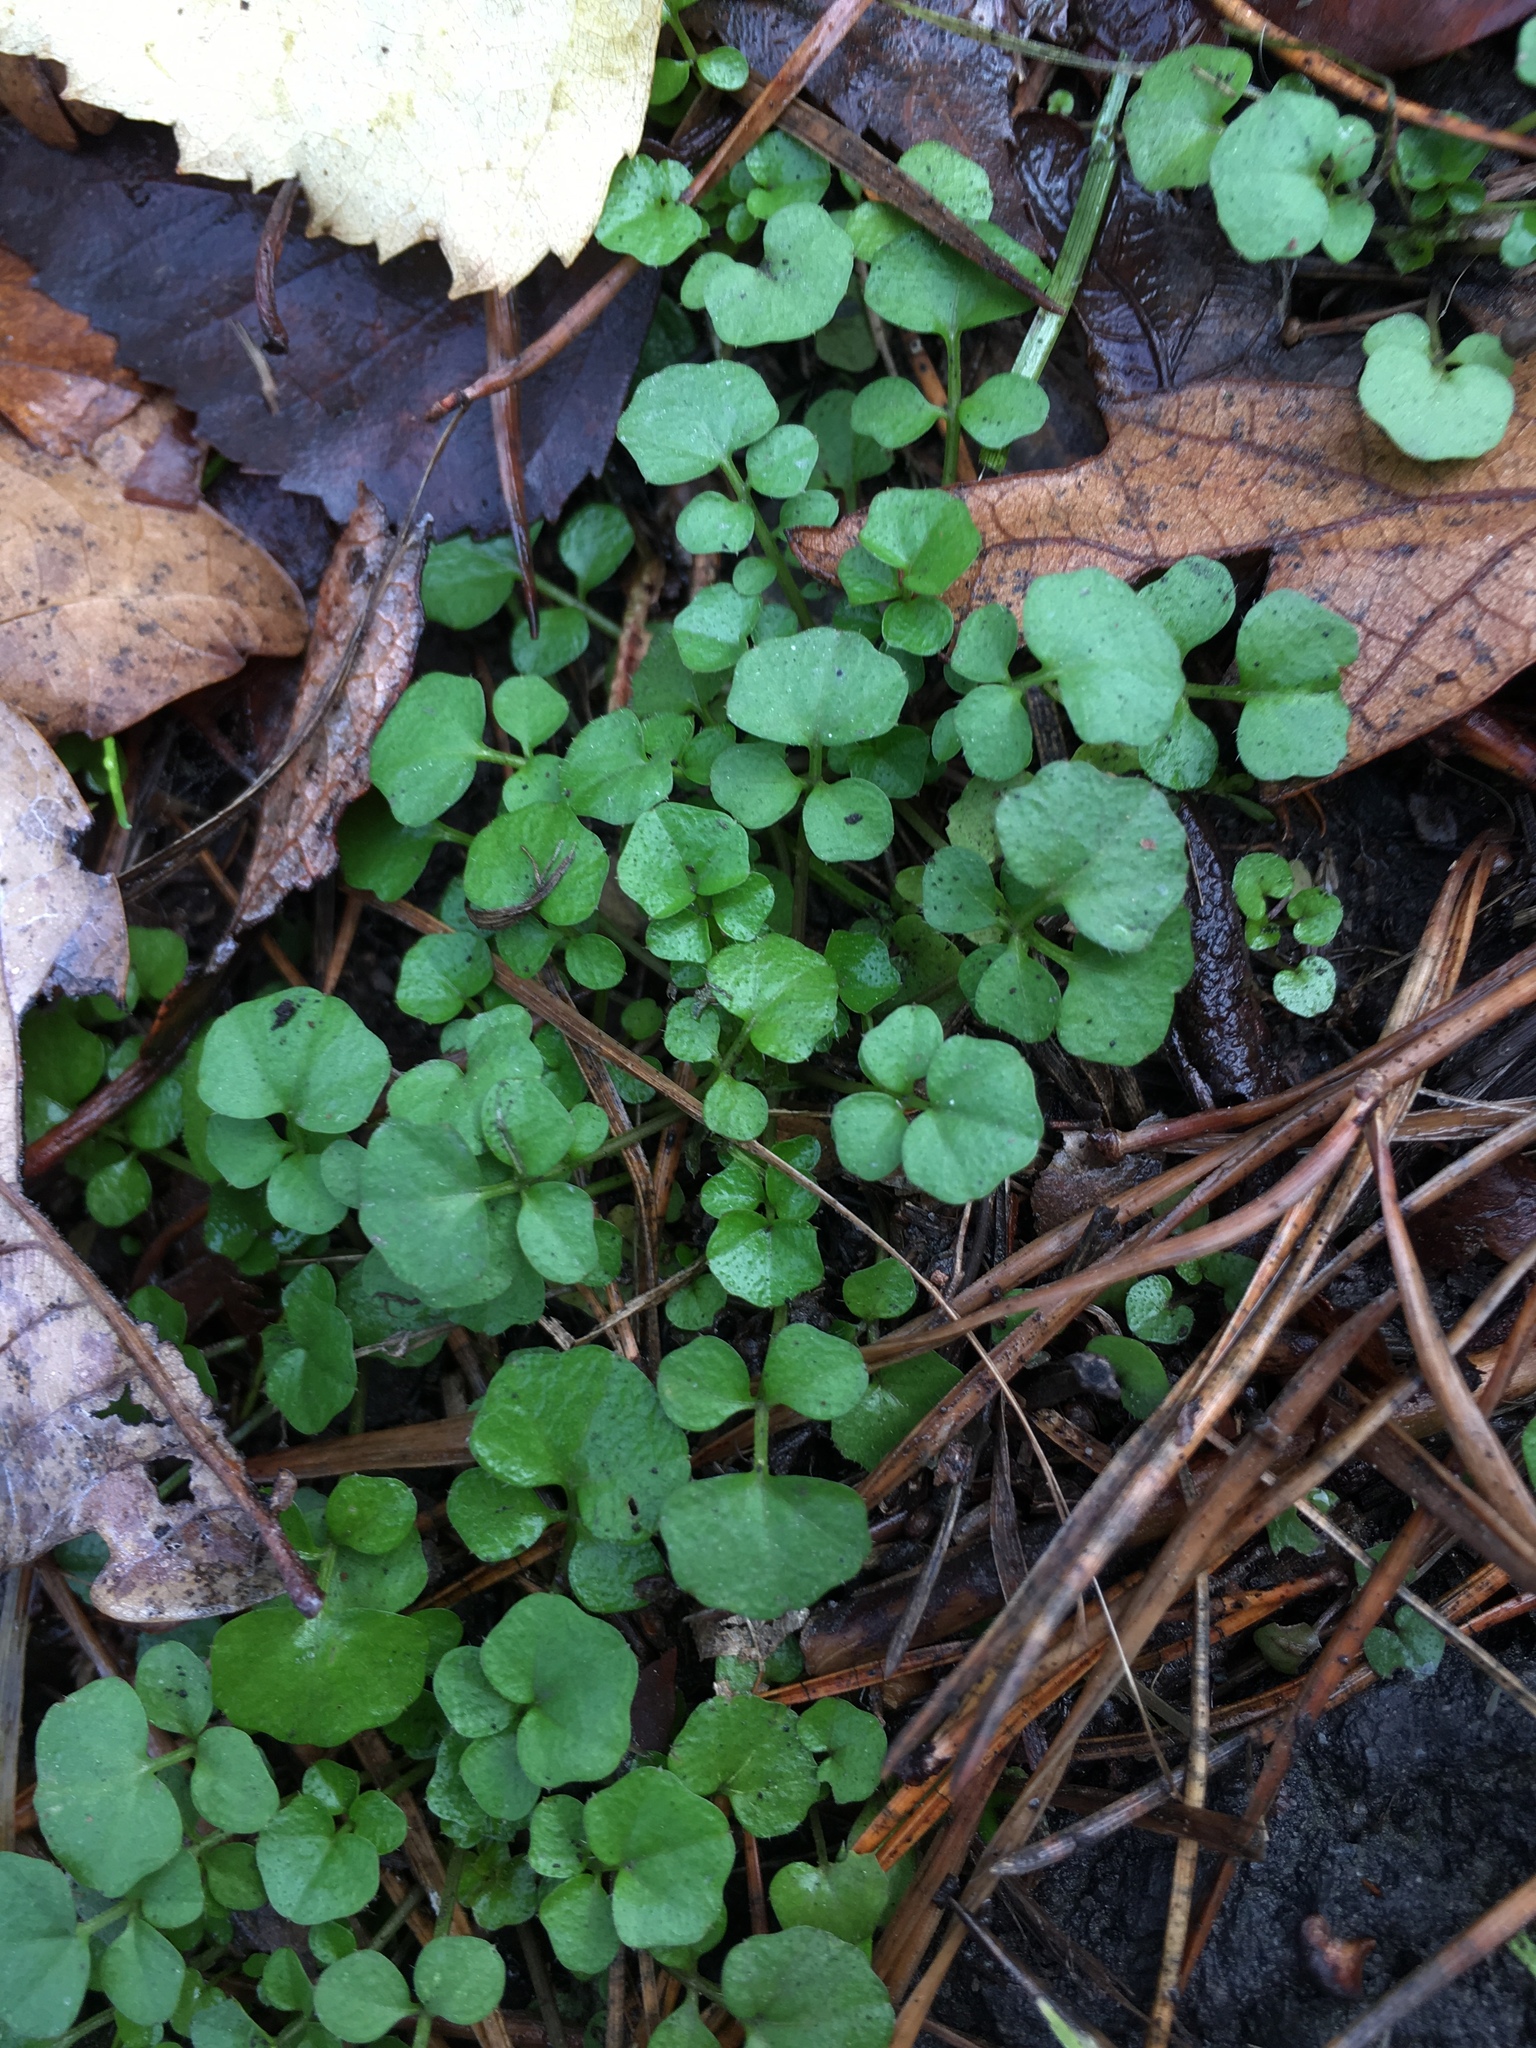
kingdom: Plantae
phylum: Tracheophyta
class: Magnoliopsida
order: Brassicales
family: Brassicaceae
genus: Cardamine
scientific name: Cardamine hirsuta
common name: Hairy bittercress
